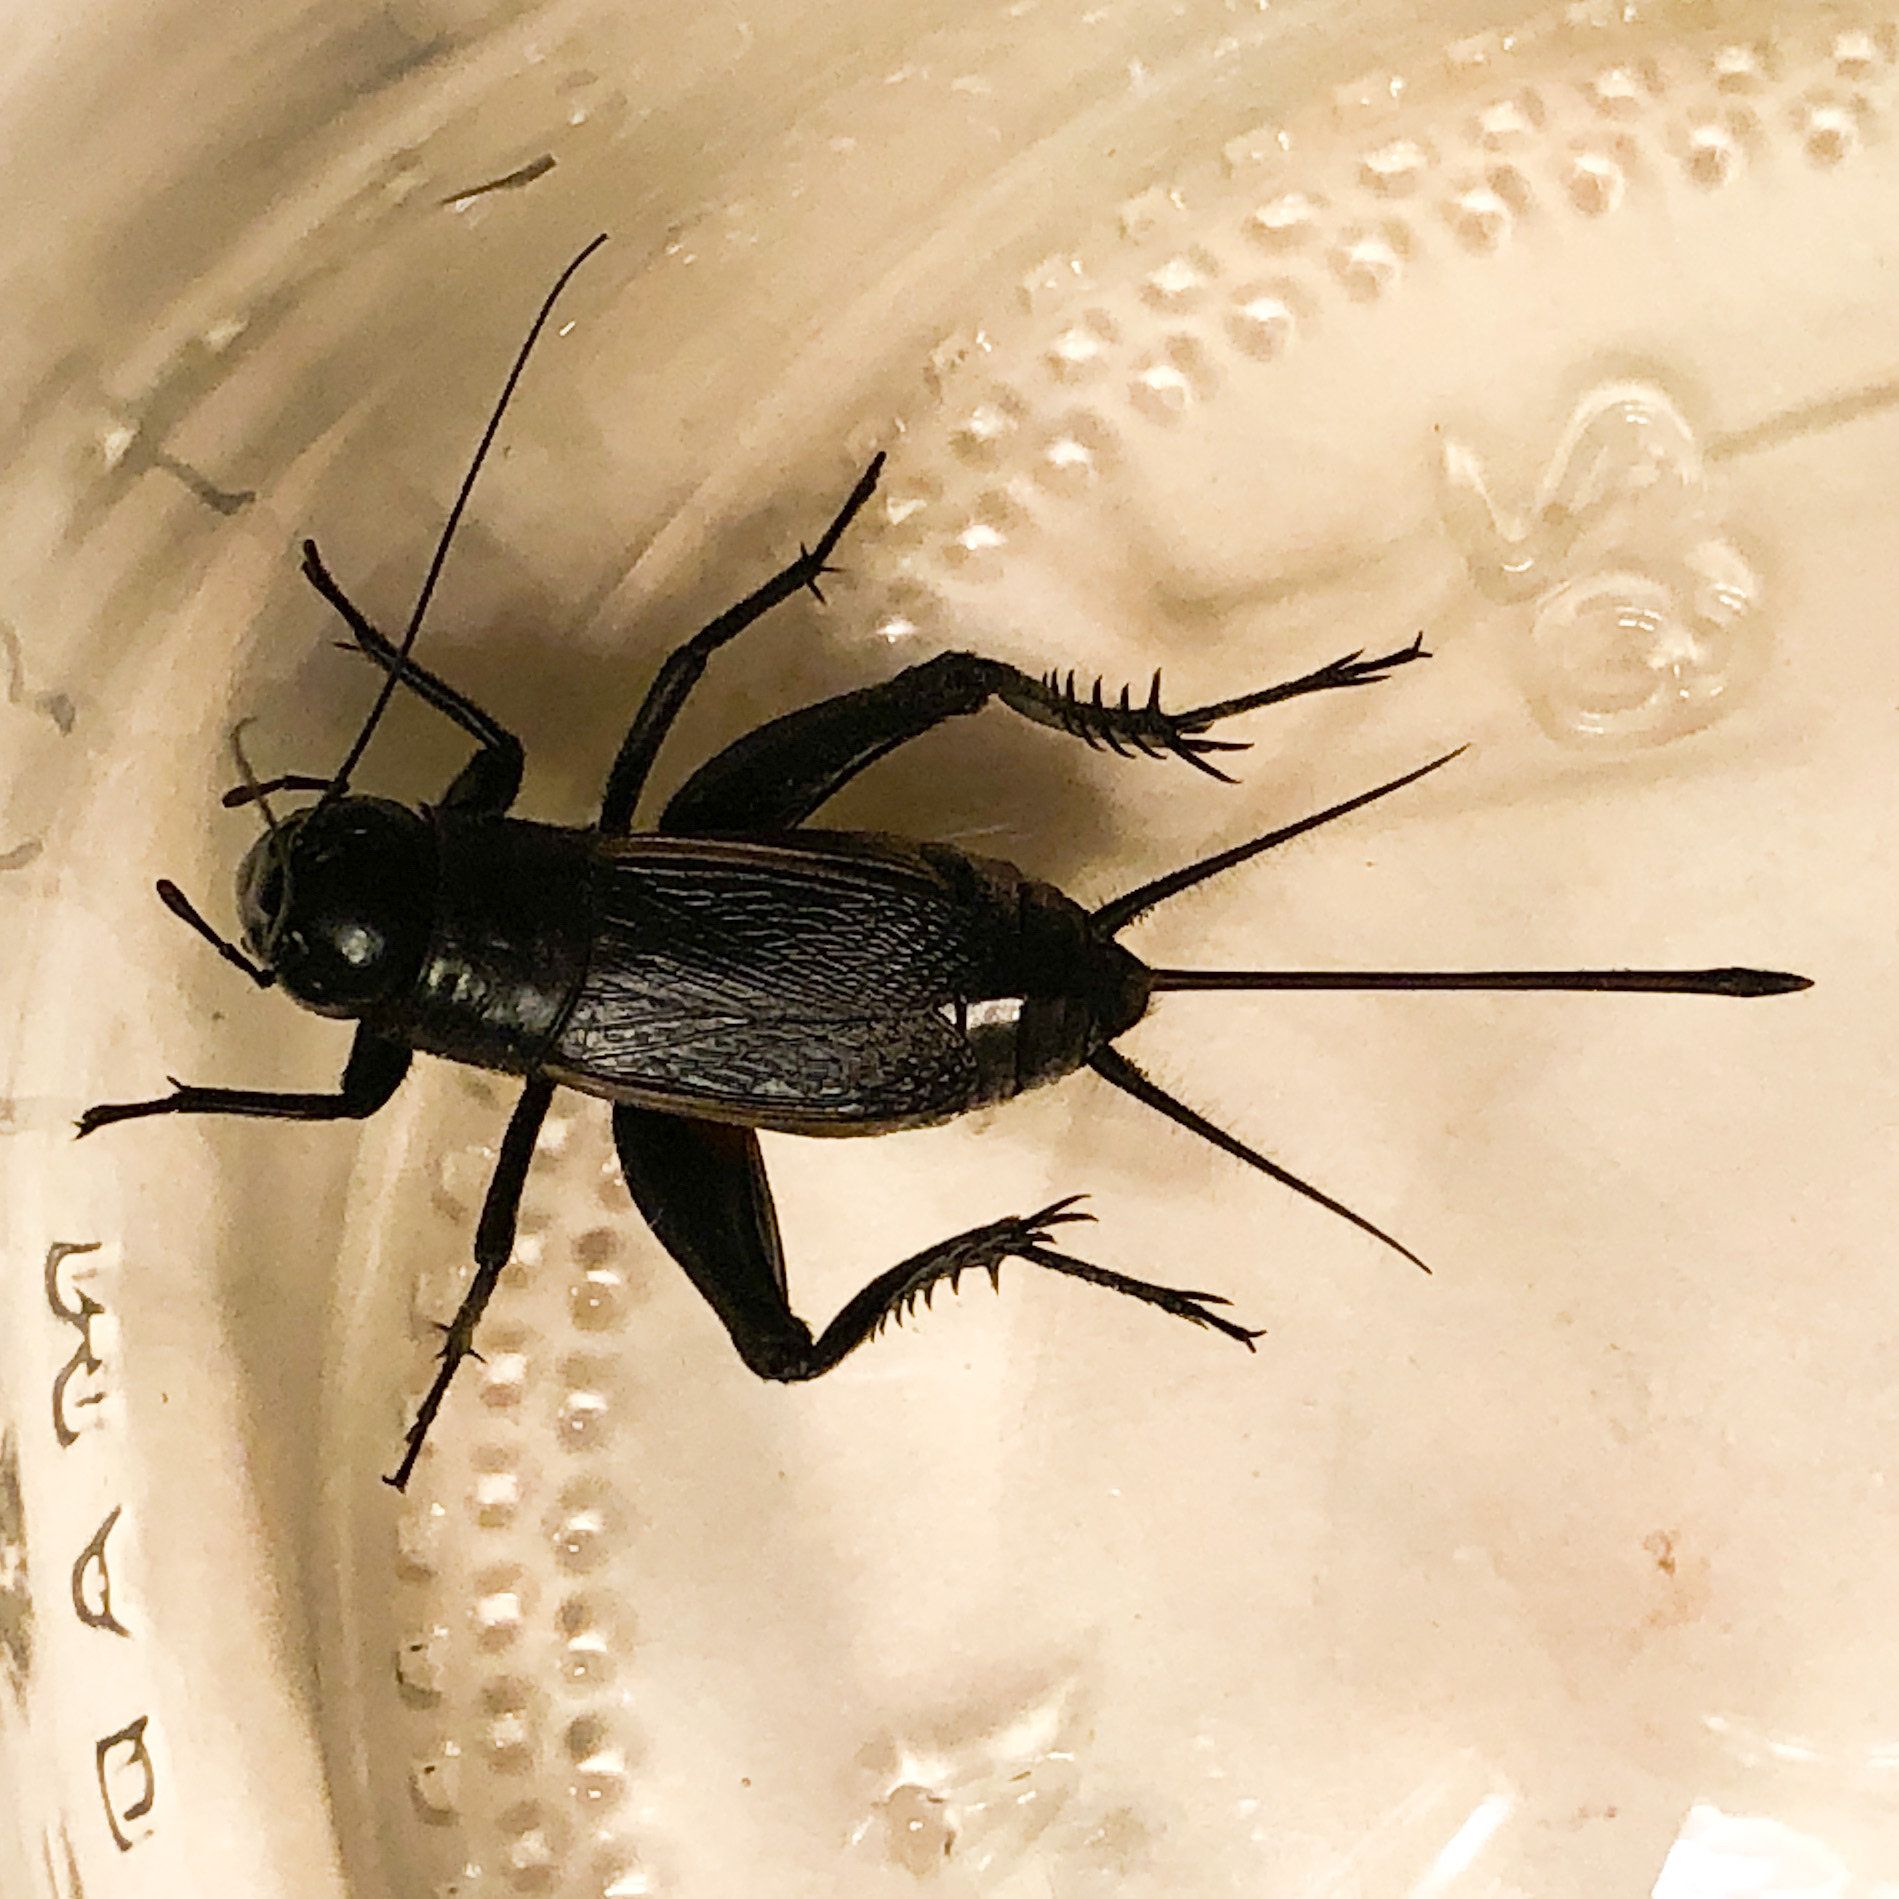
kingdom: Animalia
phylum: Arthropoda
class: Insecta
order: Orthoptera
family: Gryllidae
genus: Gryllus
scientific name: Gryllus pennsylvanicus
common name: Fall field cricket
